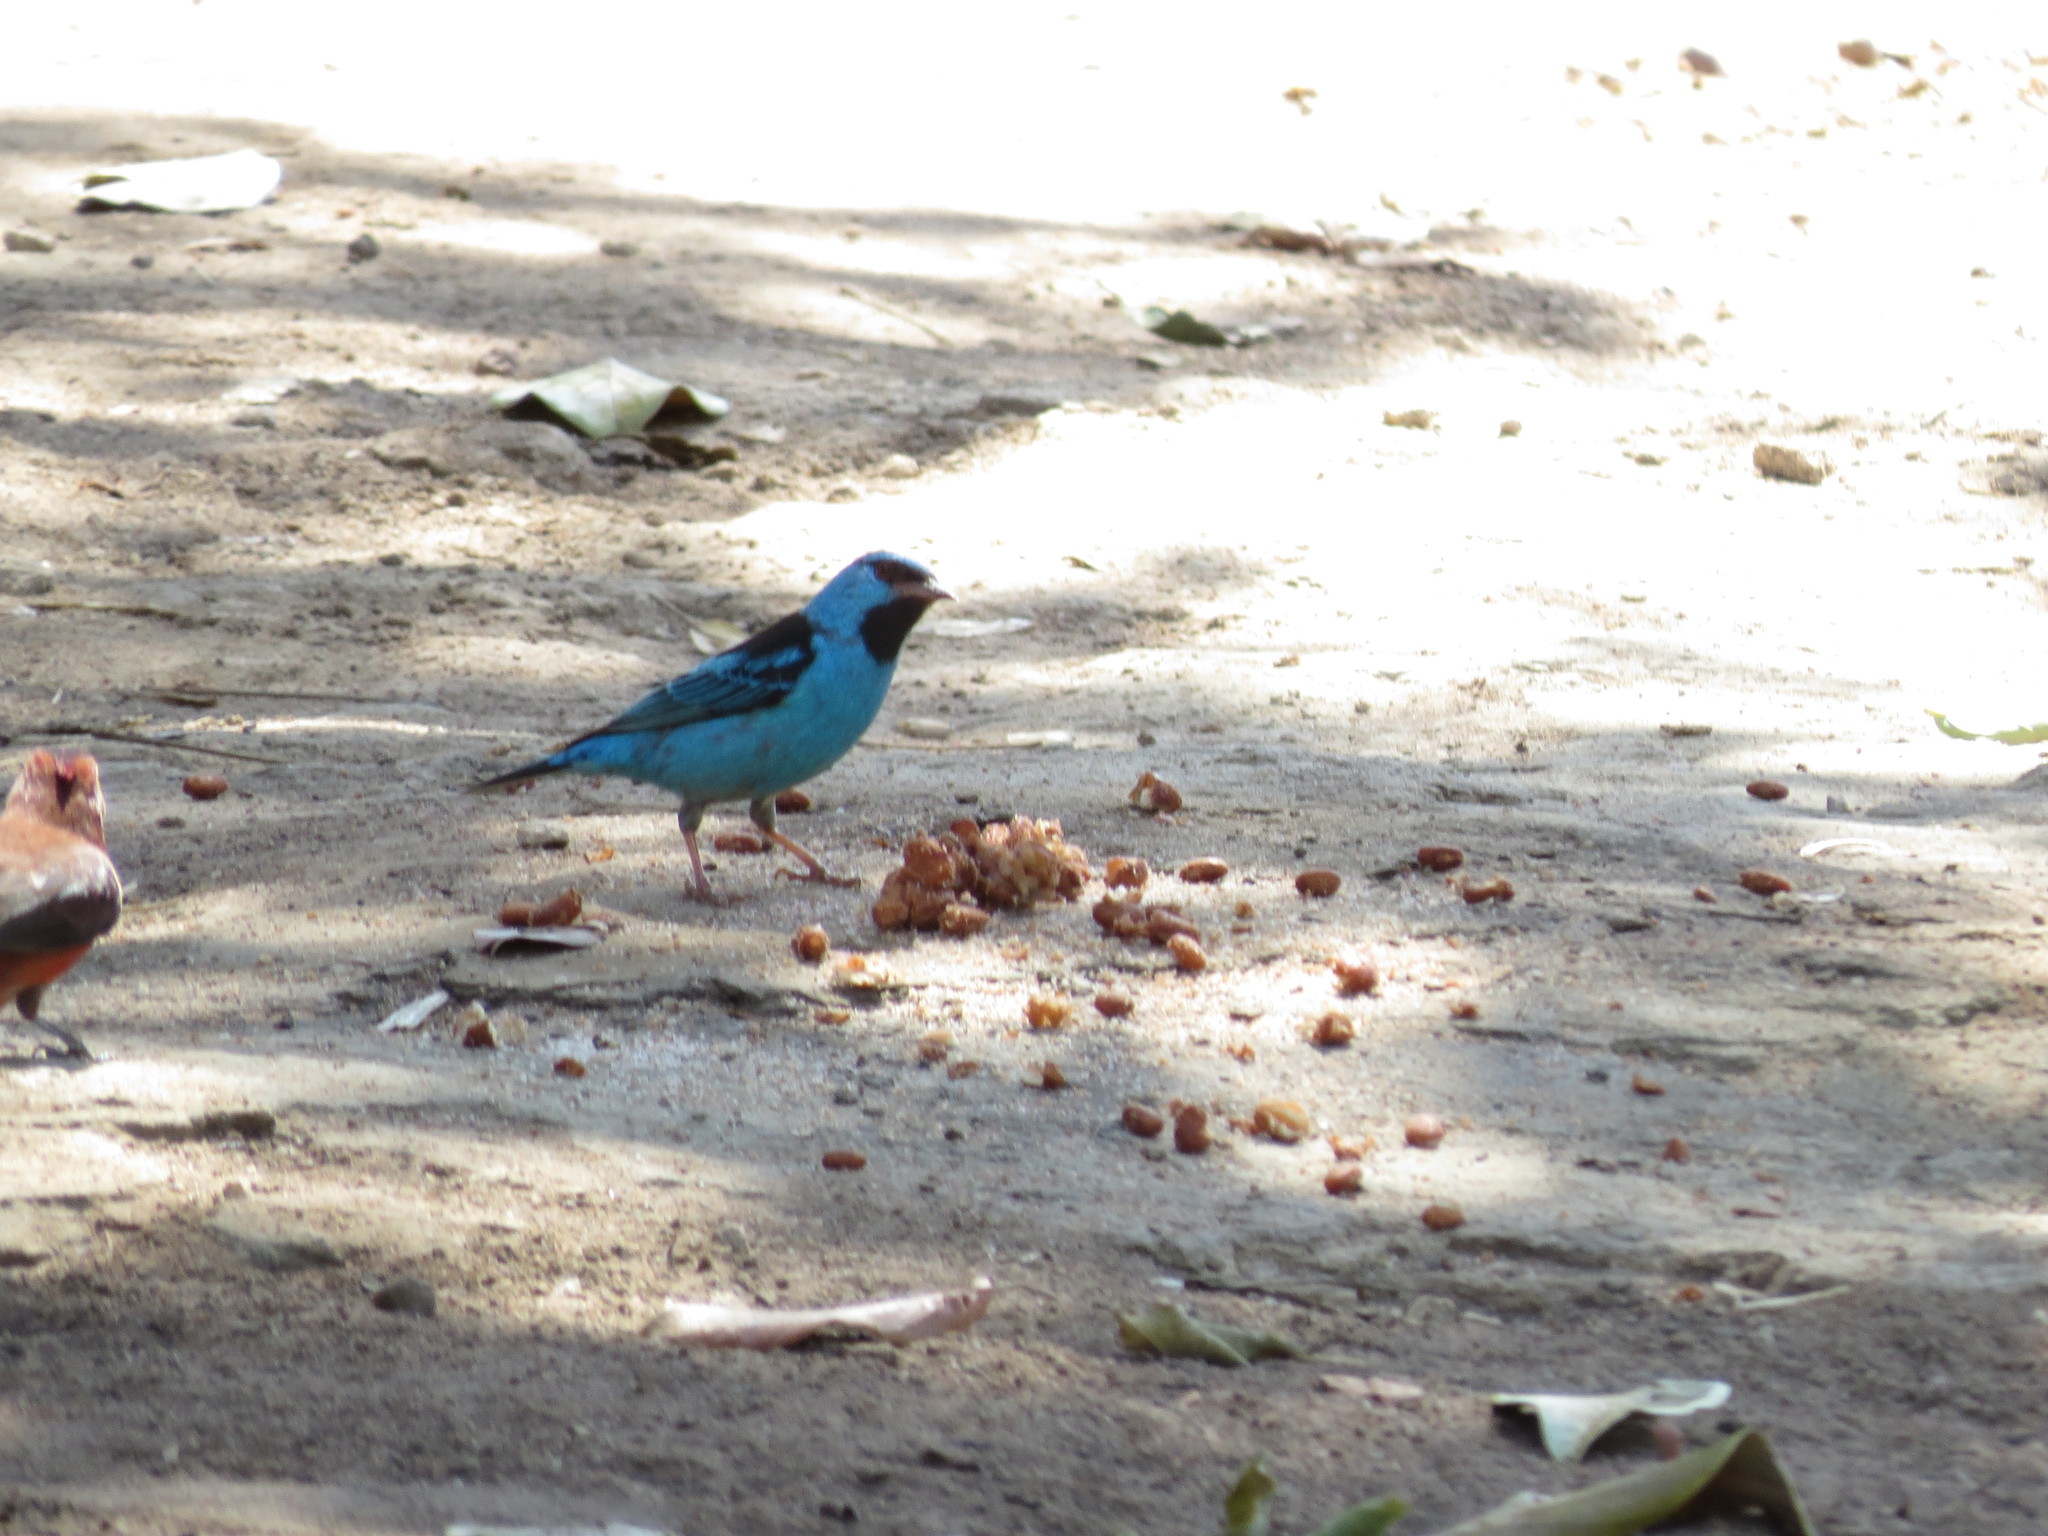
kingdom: Animalia
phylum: Chordata
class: Aves
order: Passeriformes
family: Thraupidae
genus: Dacnis
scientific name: Dacnis cayana
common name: Blue dacnis
